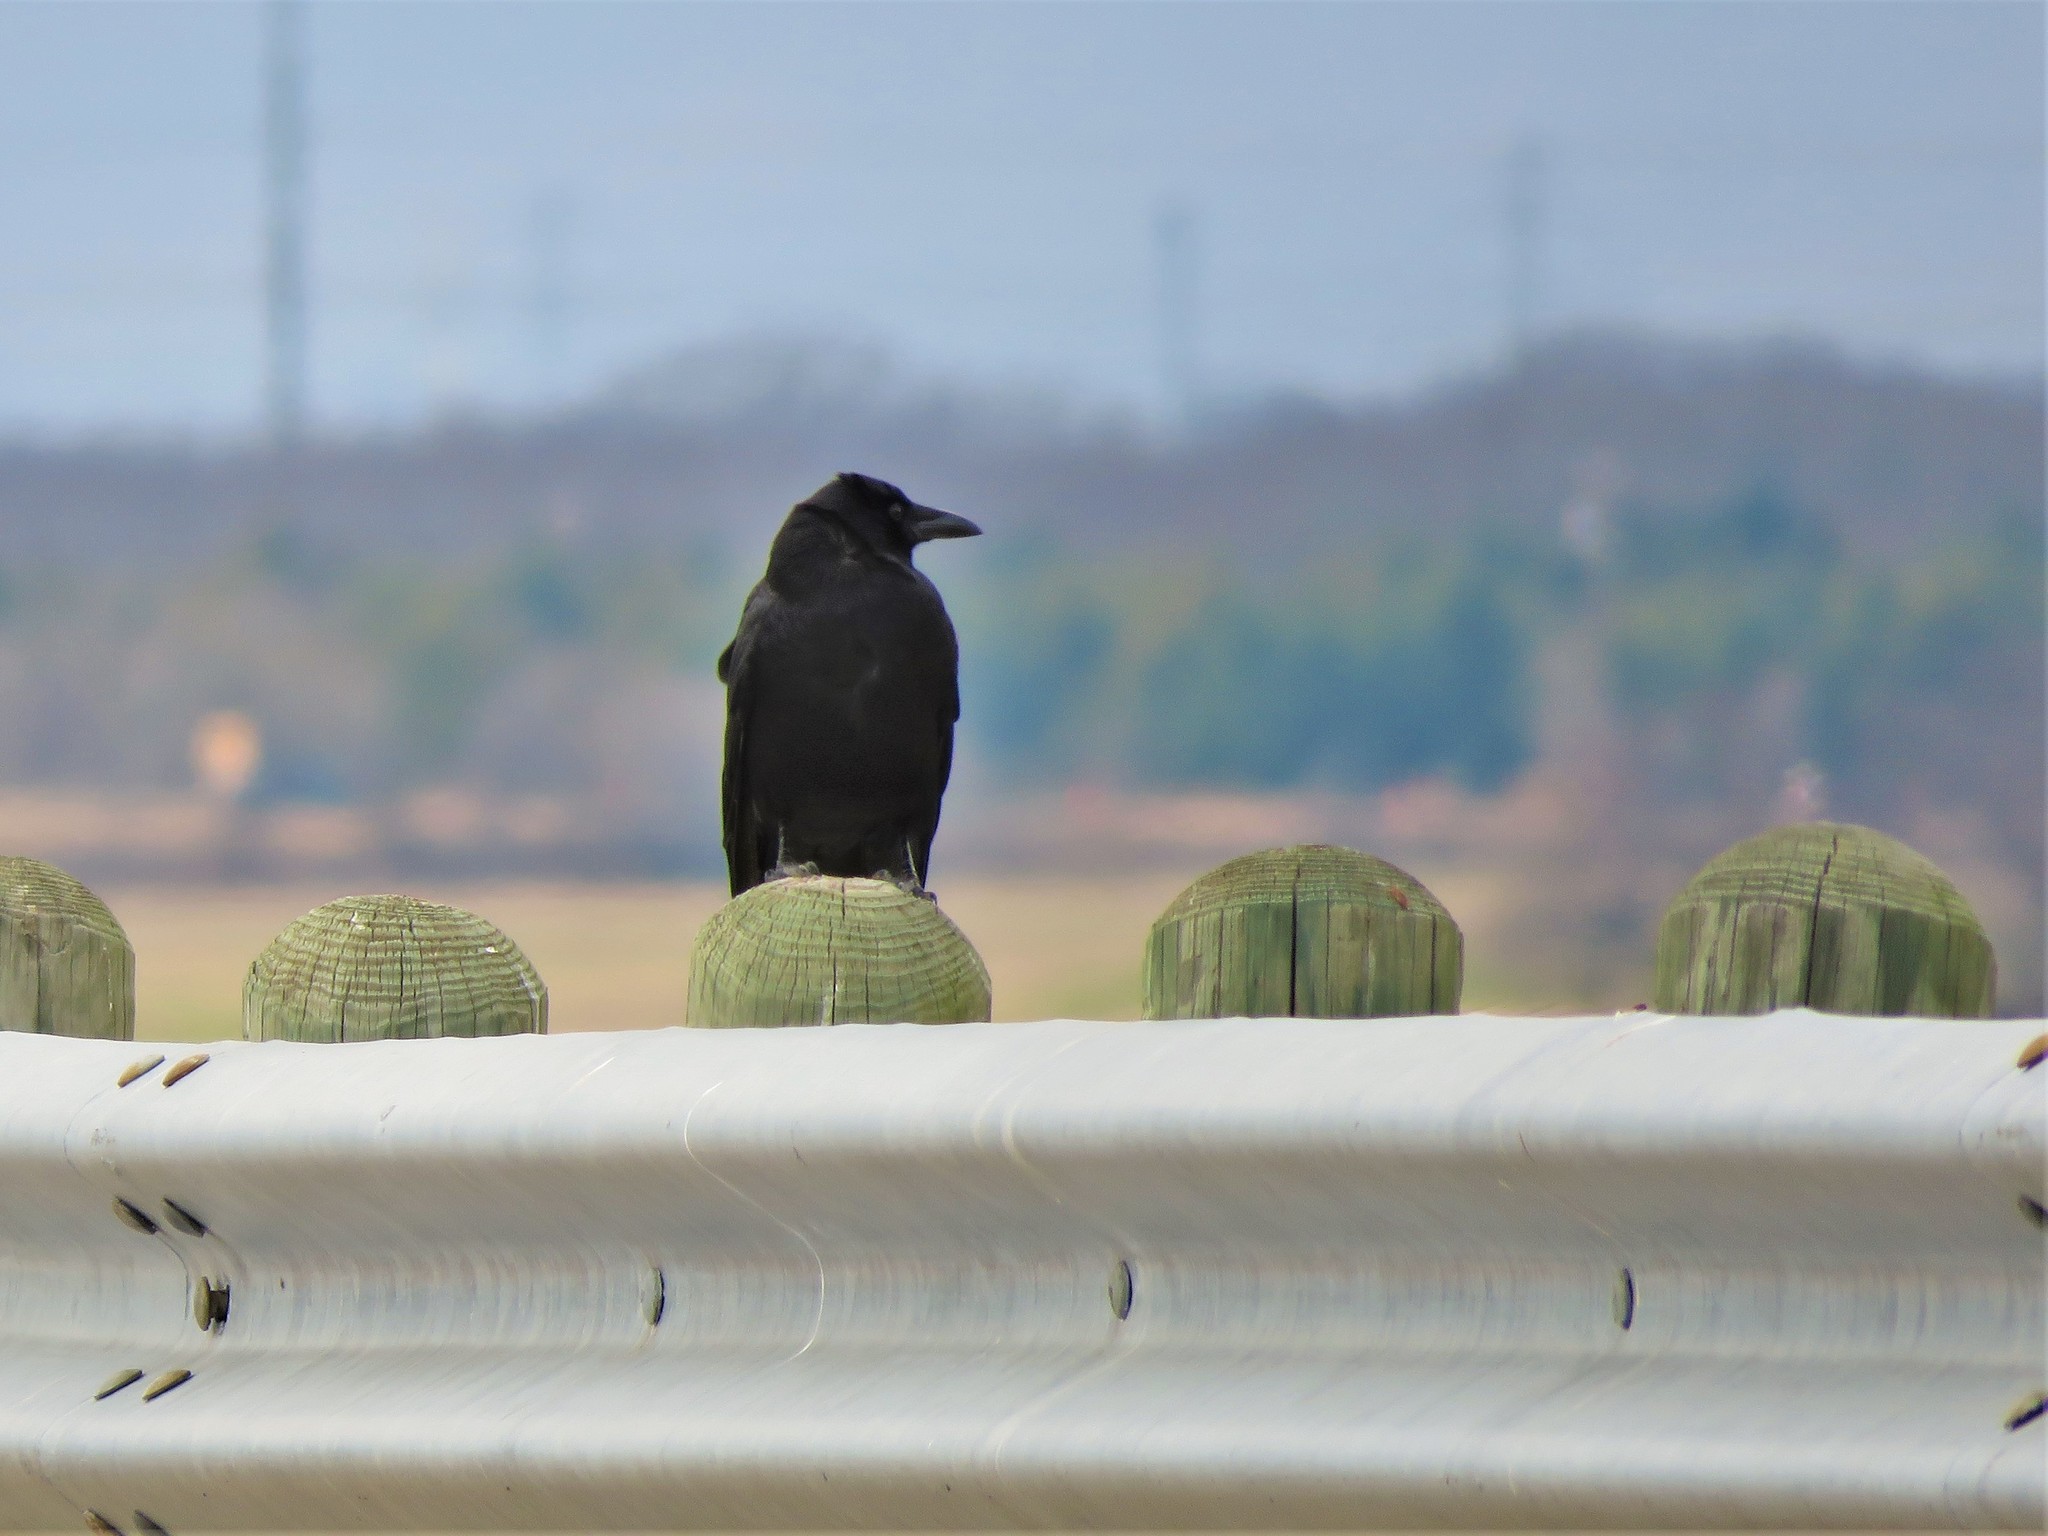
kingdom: Animalia
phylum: Chordata
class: Aves
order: Passeriformes
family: Corvidae
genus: Corvus
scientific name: Corvus brachyrhynchos
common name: American crow
